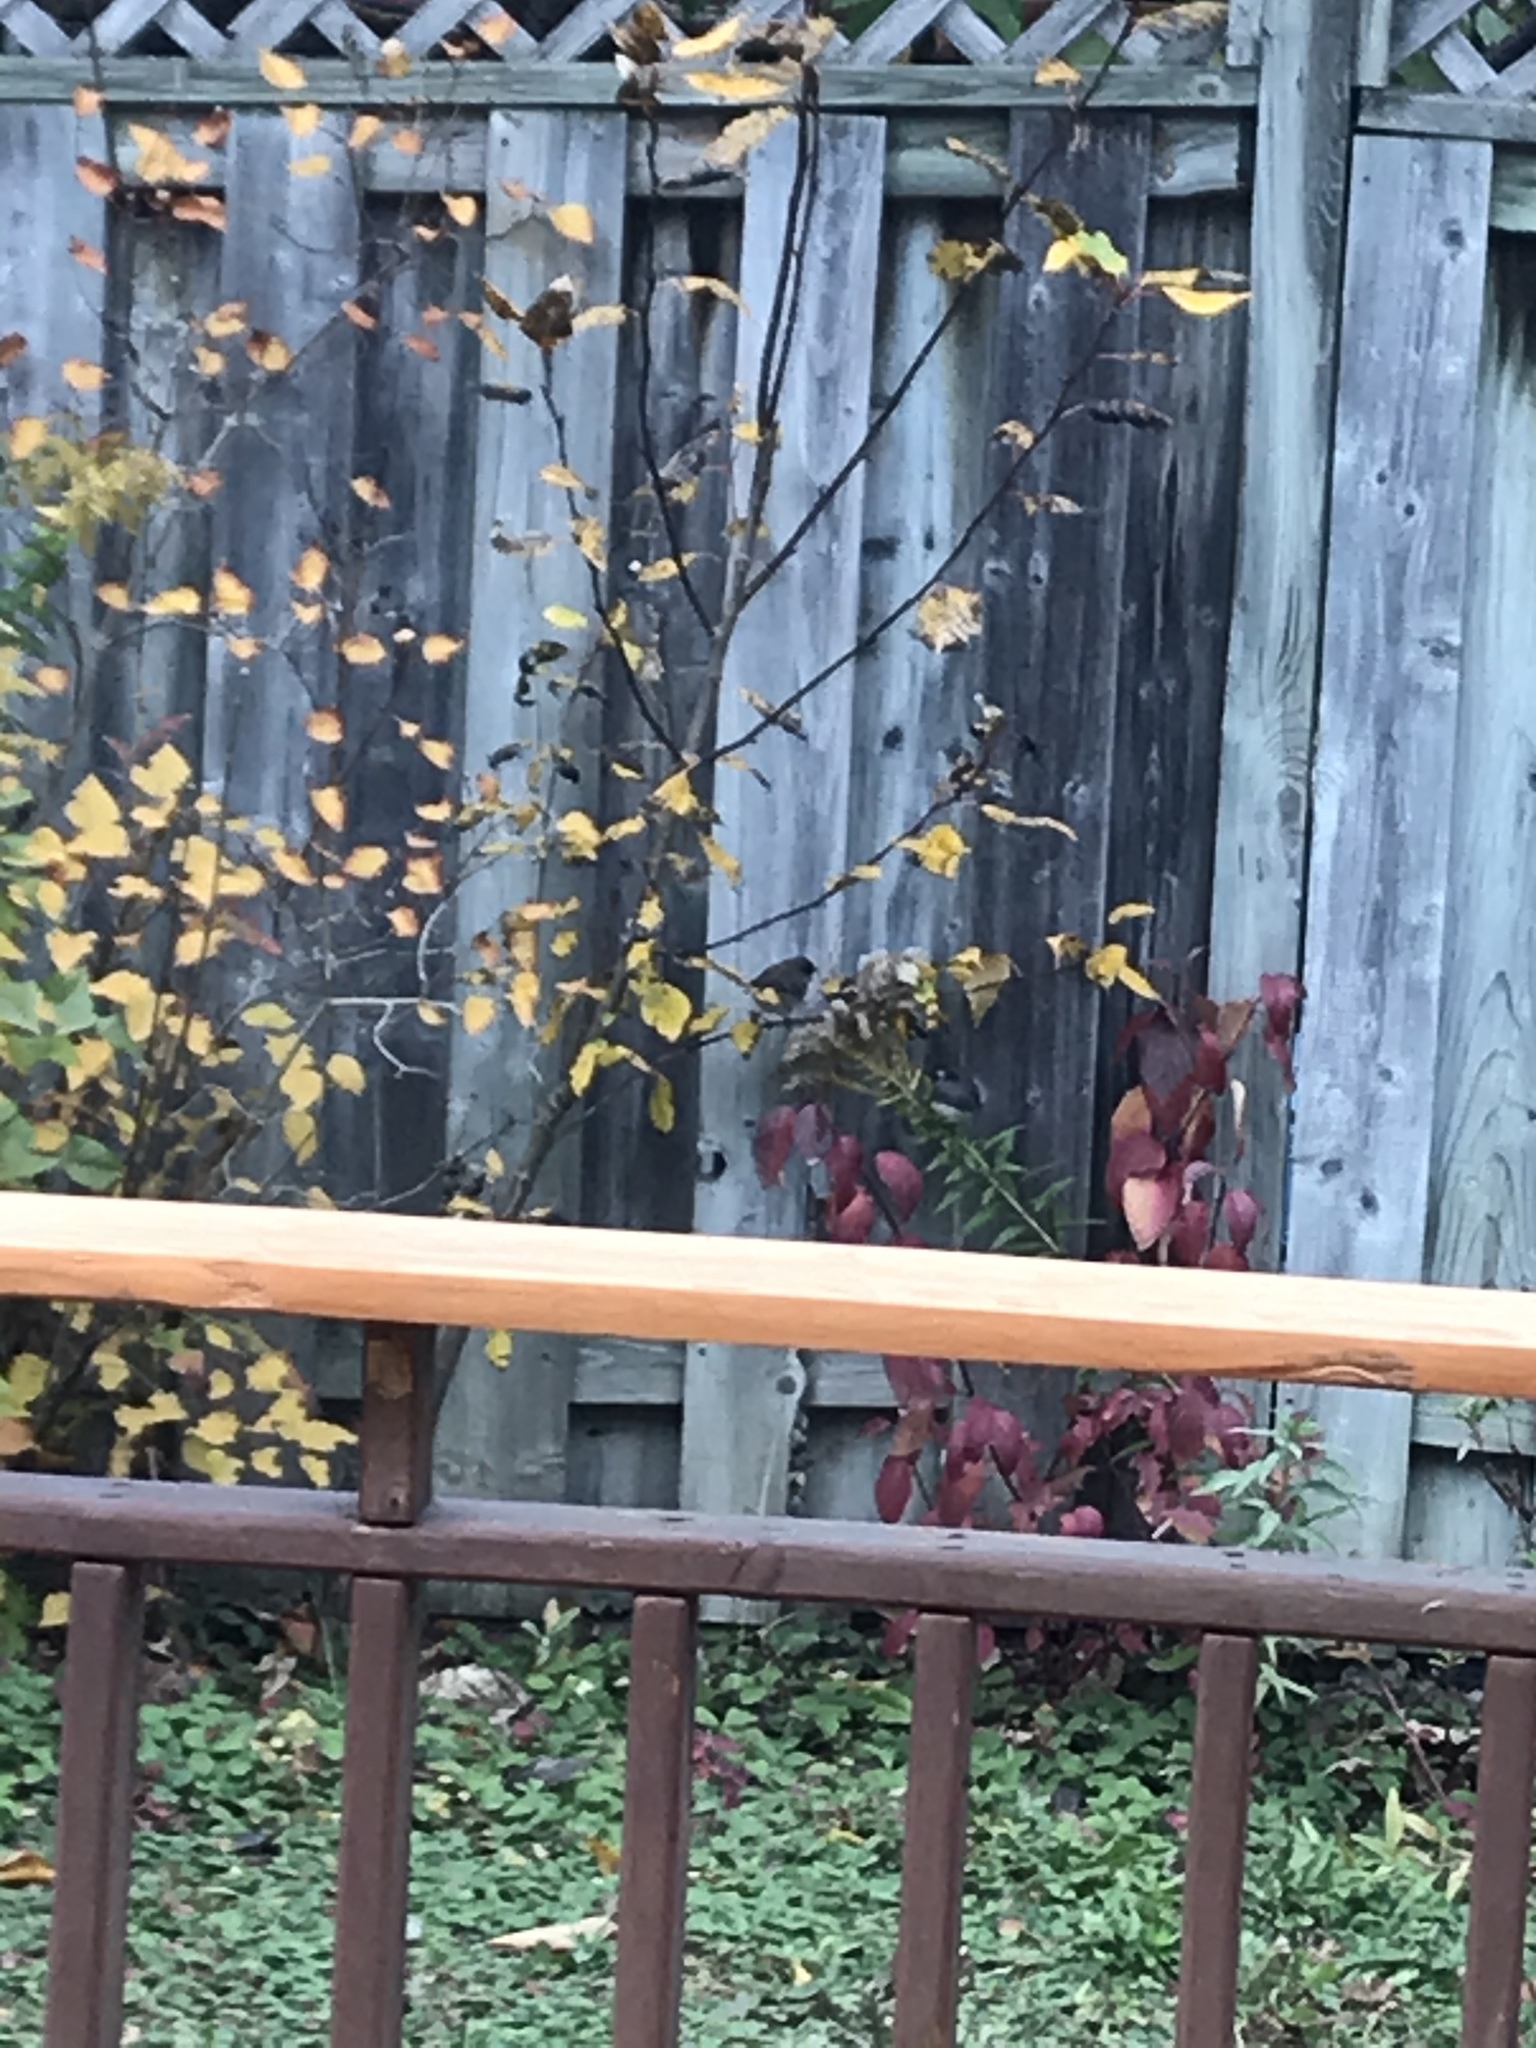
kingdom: Animalia
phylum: Chordata
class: Aves
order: Passeriformes
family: Passerellidae
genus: Junco
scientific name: Junco hyemalis
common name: Dark-eyed junco
